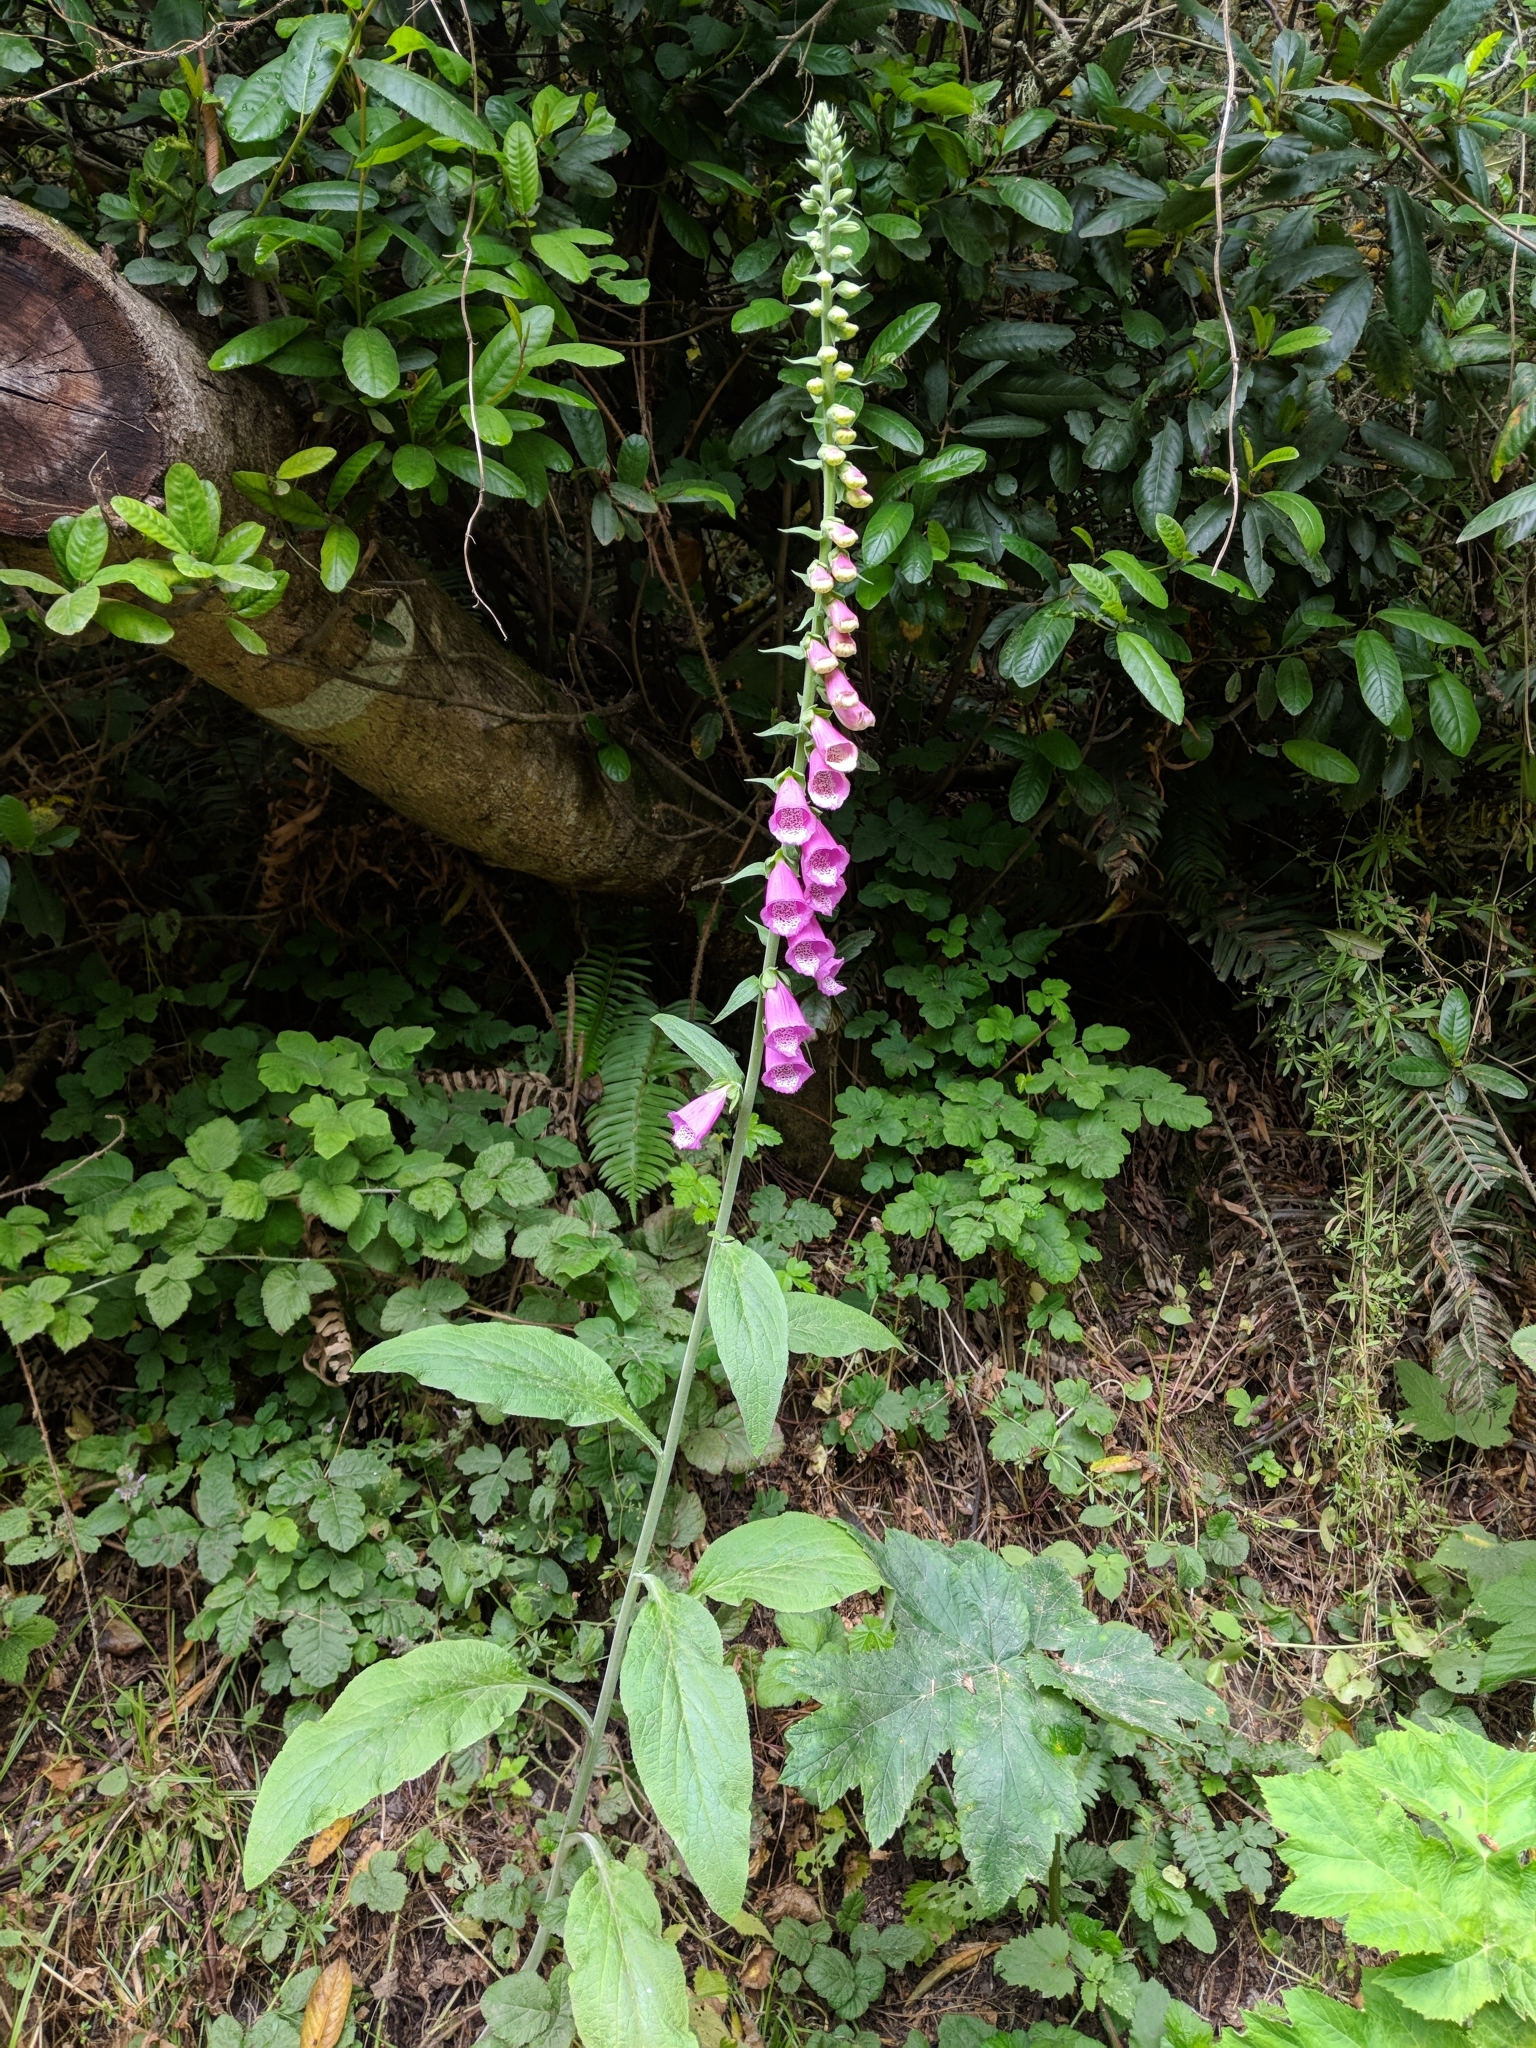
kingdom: Plantae
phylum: Tracheophyta
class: Magnoliopsida
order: Lamiales
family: Plantaginaceae
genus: Digitalis
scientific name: Digitalis purpurea
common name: Foxglove
